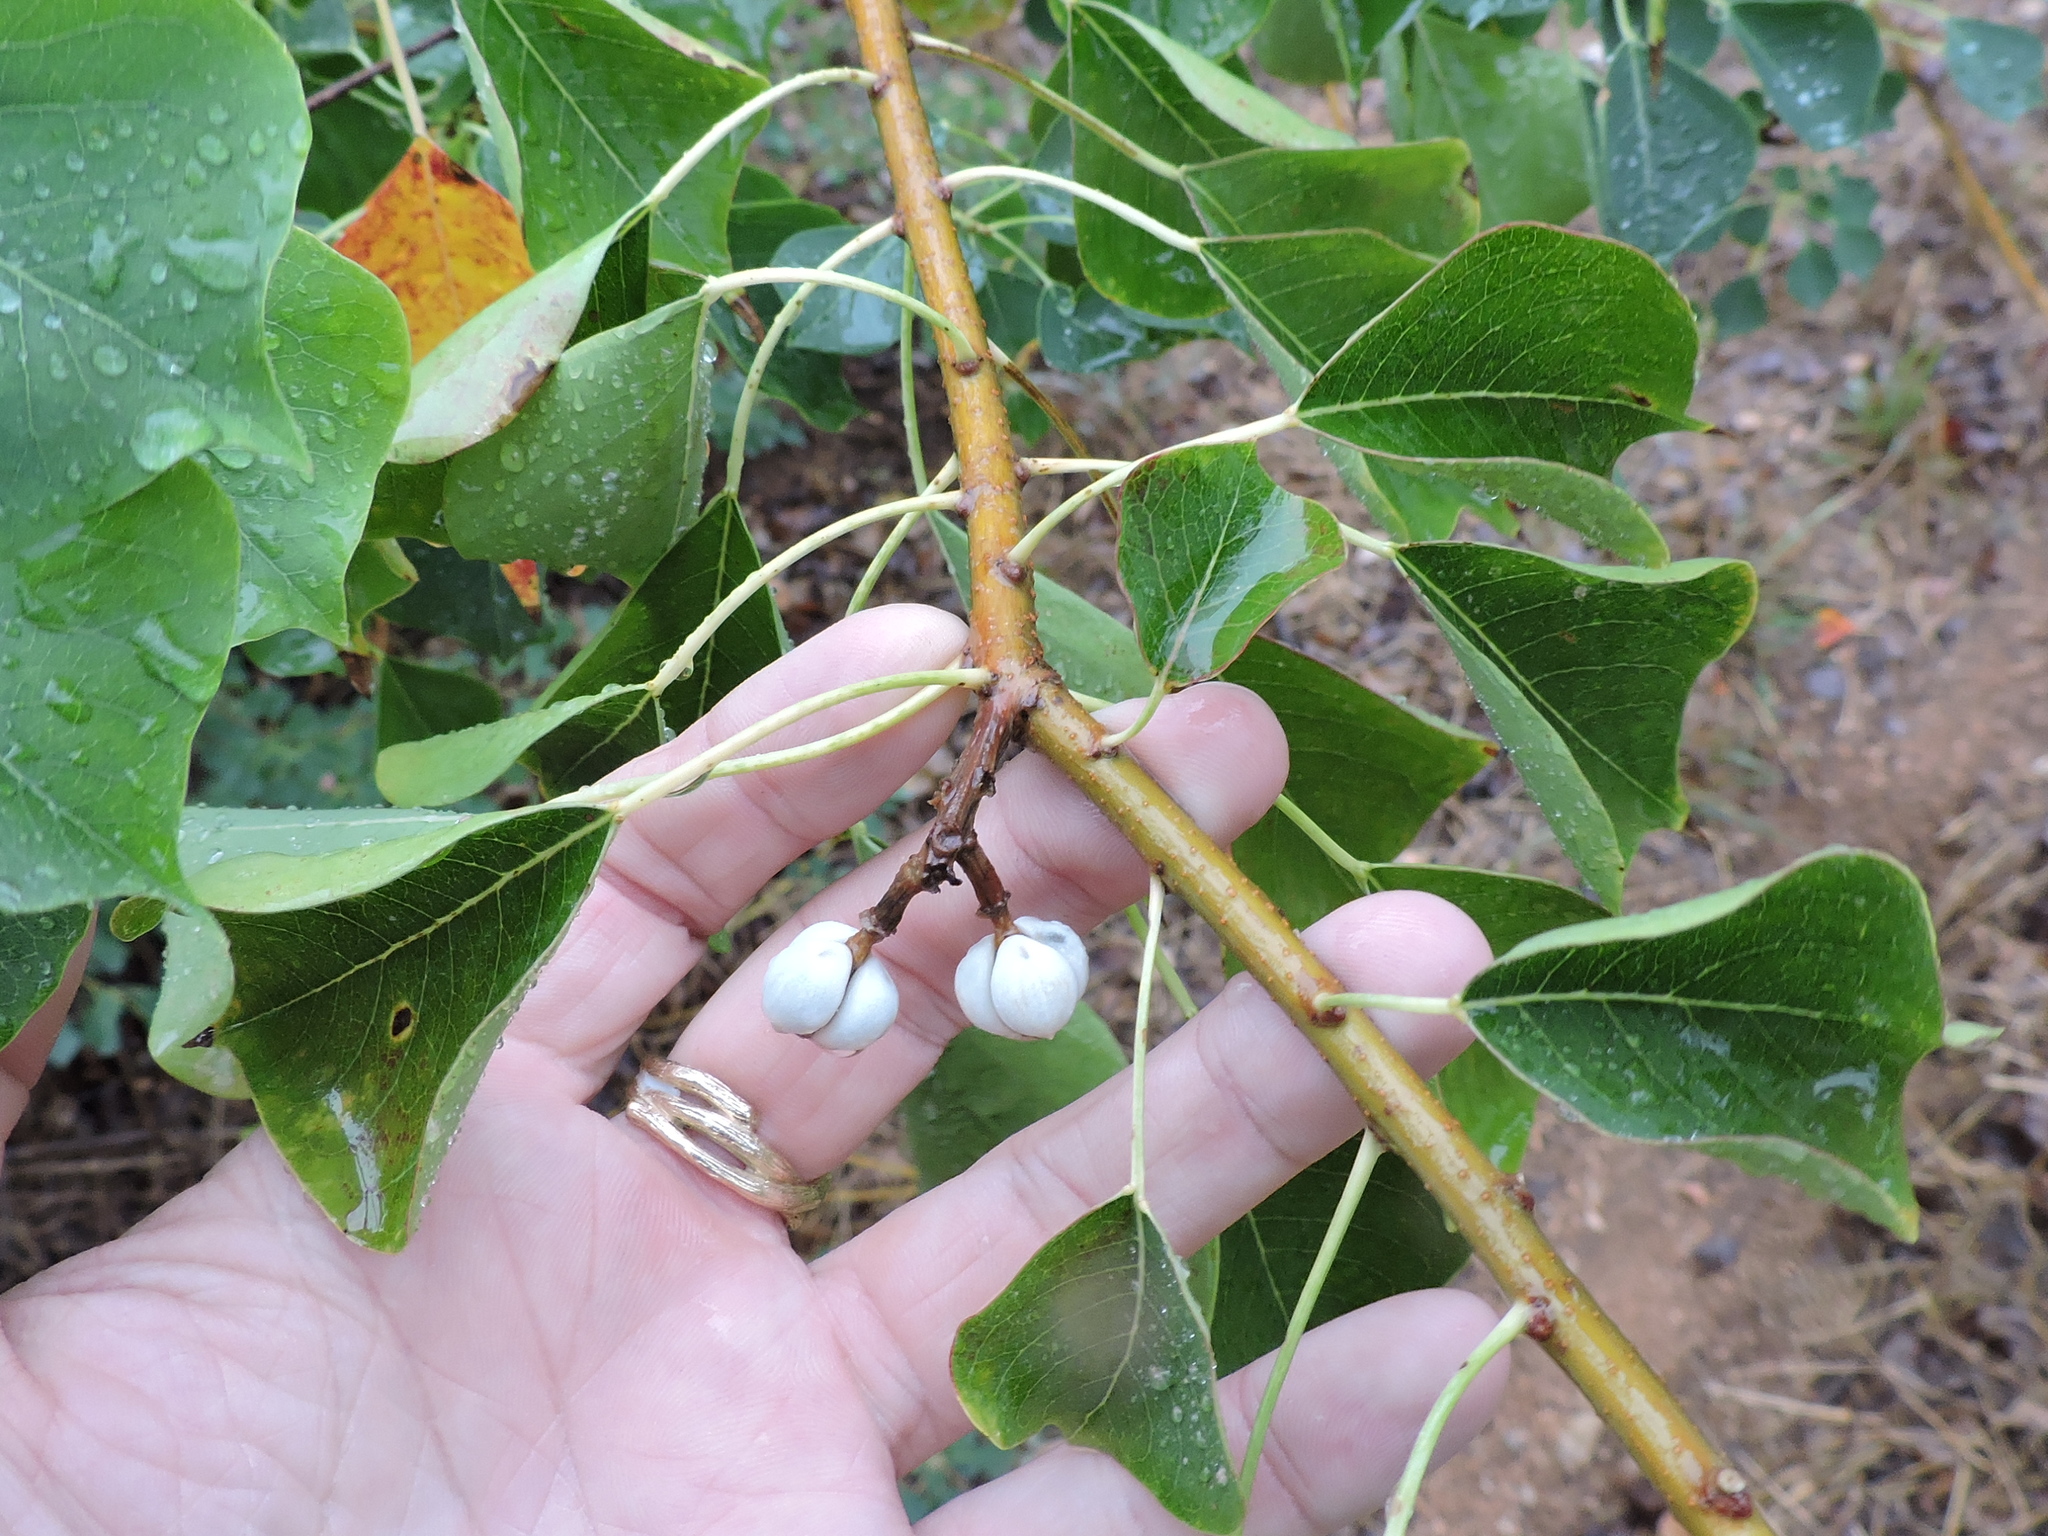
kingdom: Plantae
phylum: Tracheophyta
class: Magnoliopsida
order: Malpighiales
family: Euphorbiaceae
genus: Triadica
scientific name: Triadica sebifera
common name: Chinese tallow
